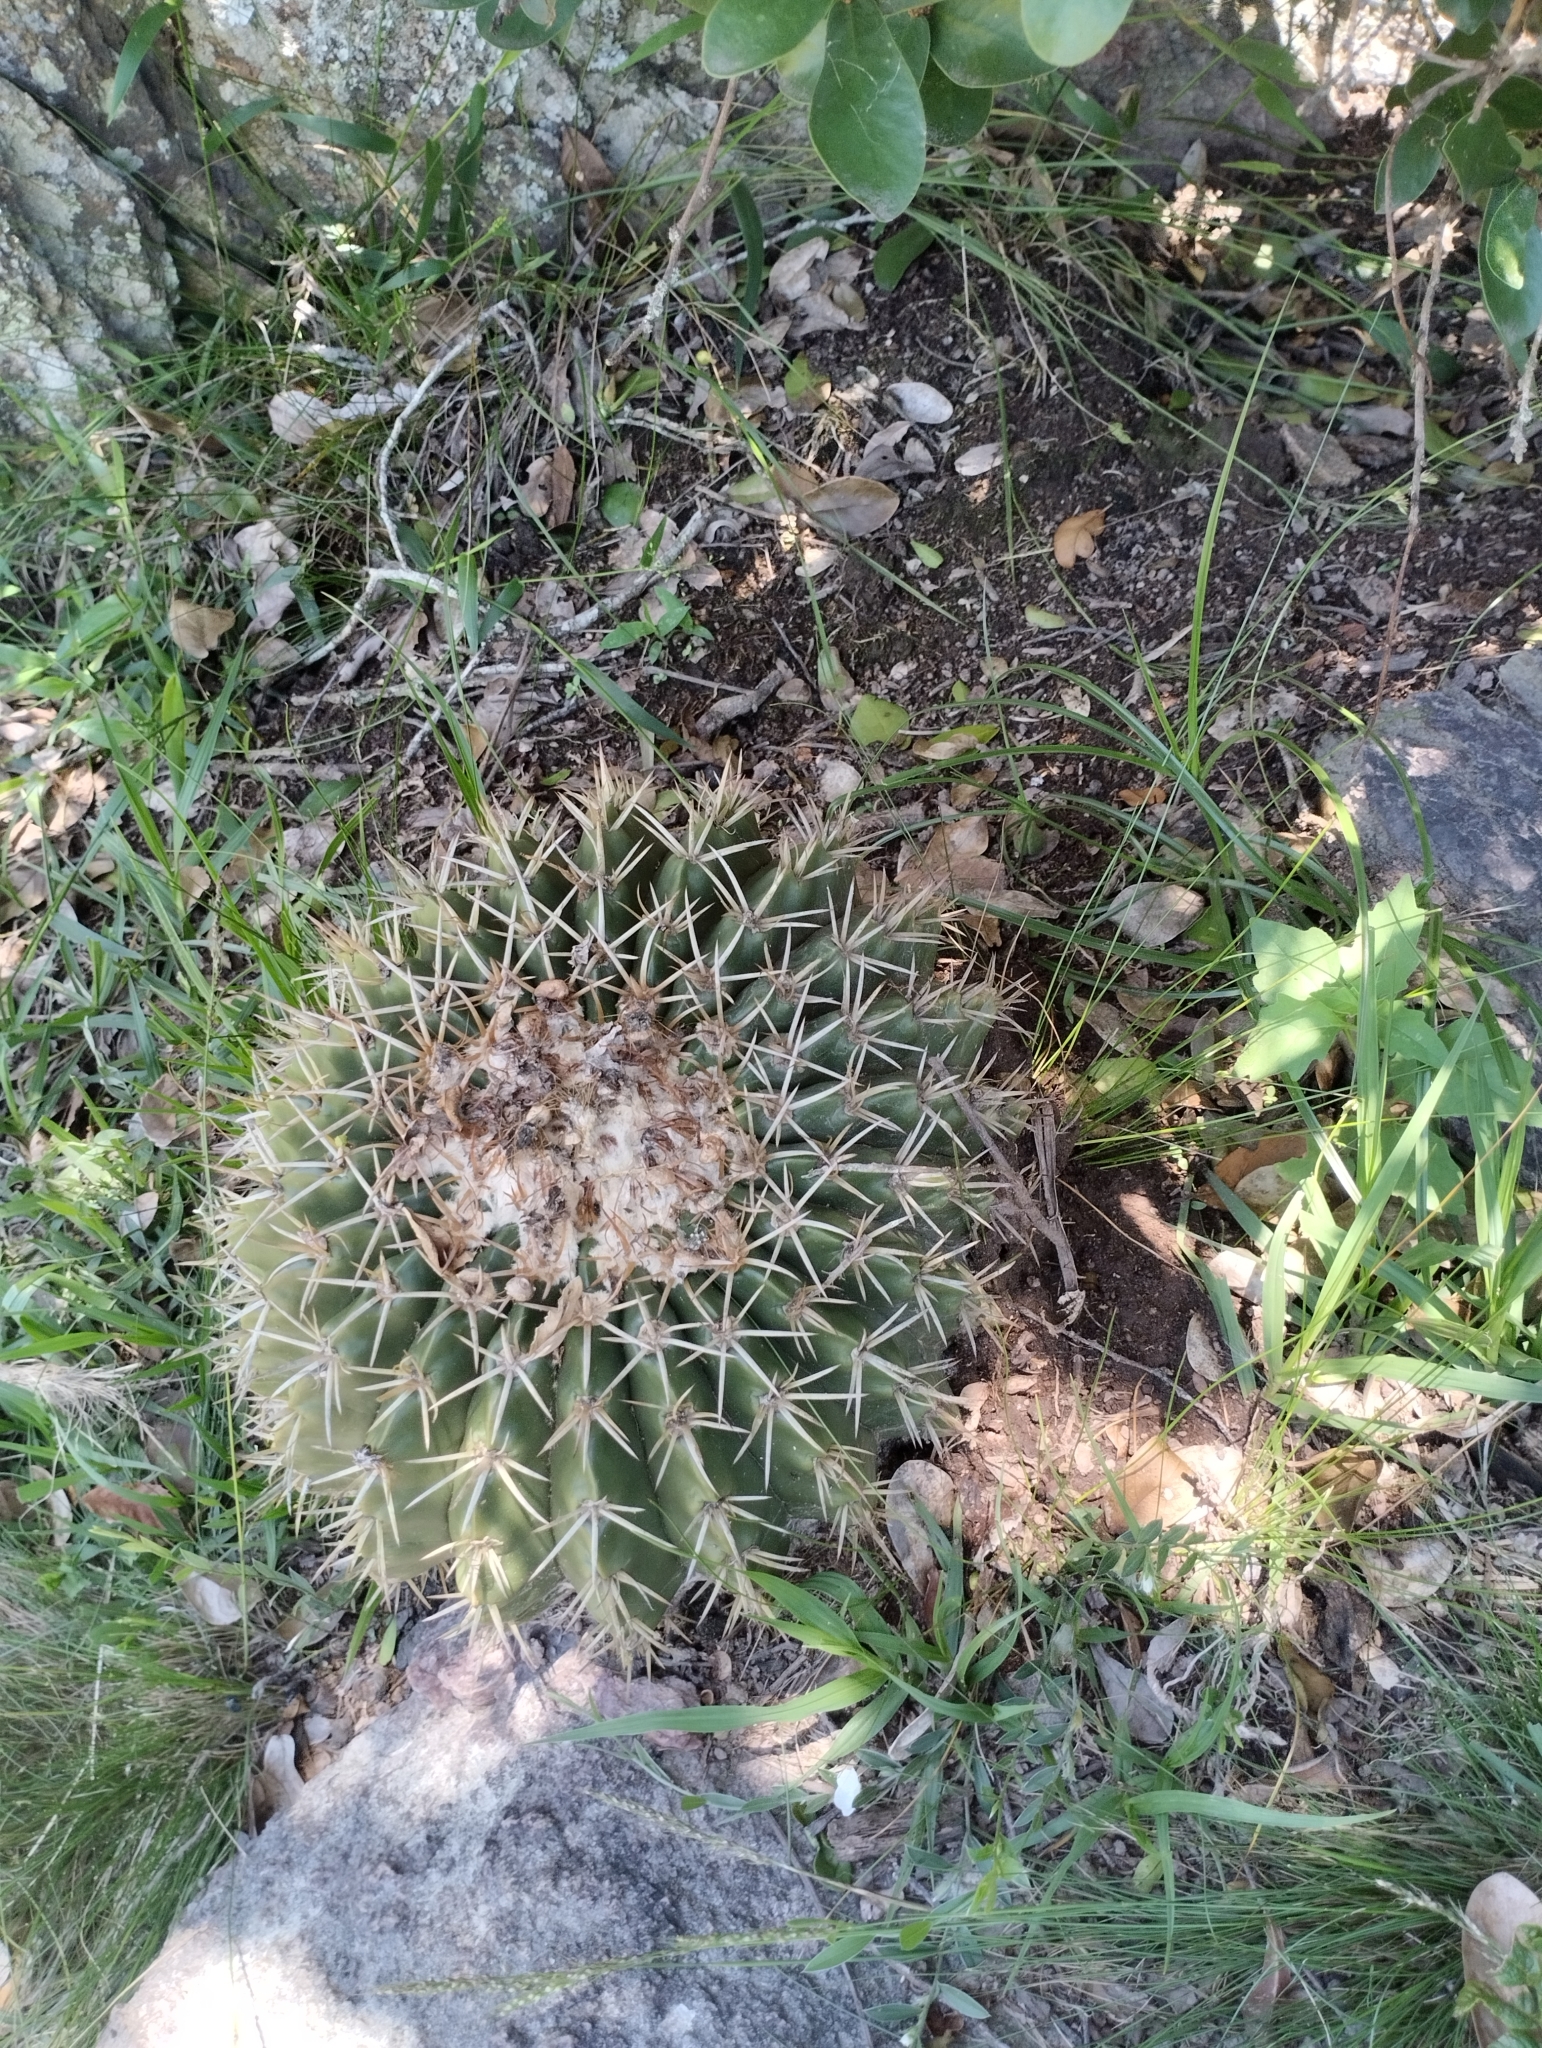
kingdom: Plantae
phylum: Tracheophyta
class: Magnoliopsida
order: Caryophyllales
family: Cactaceae
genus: Parodia
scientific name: Parodia erinacea
